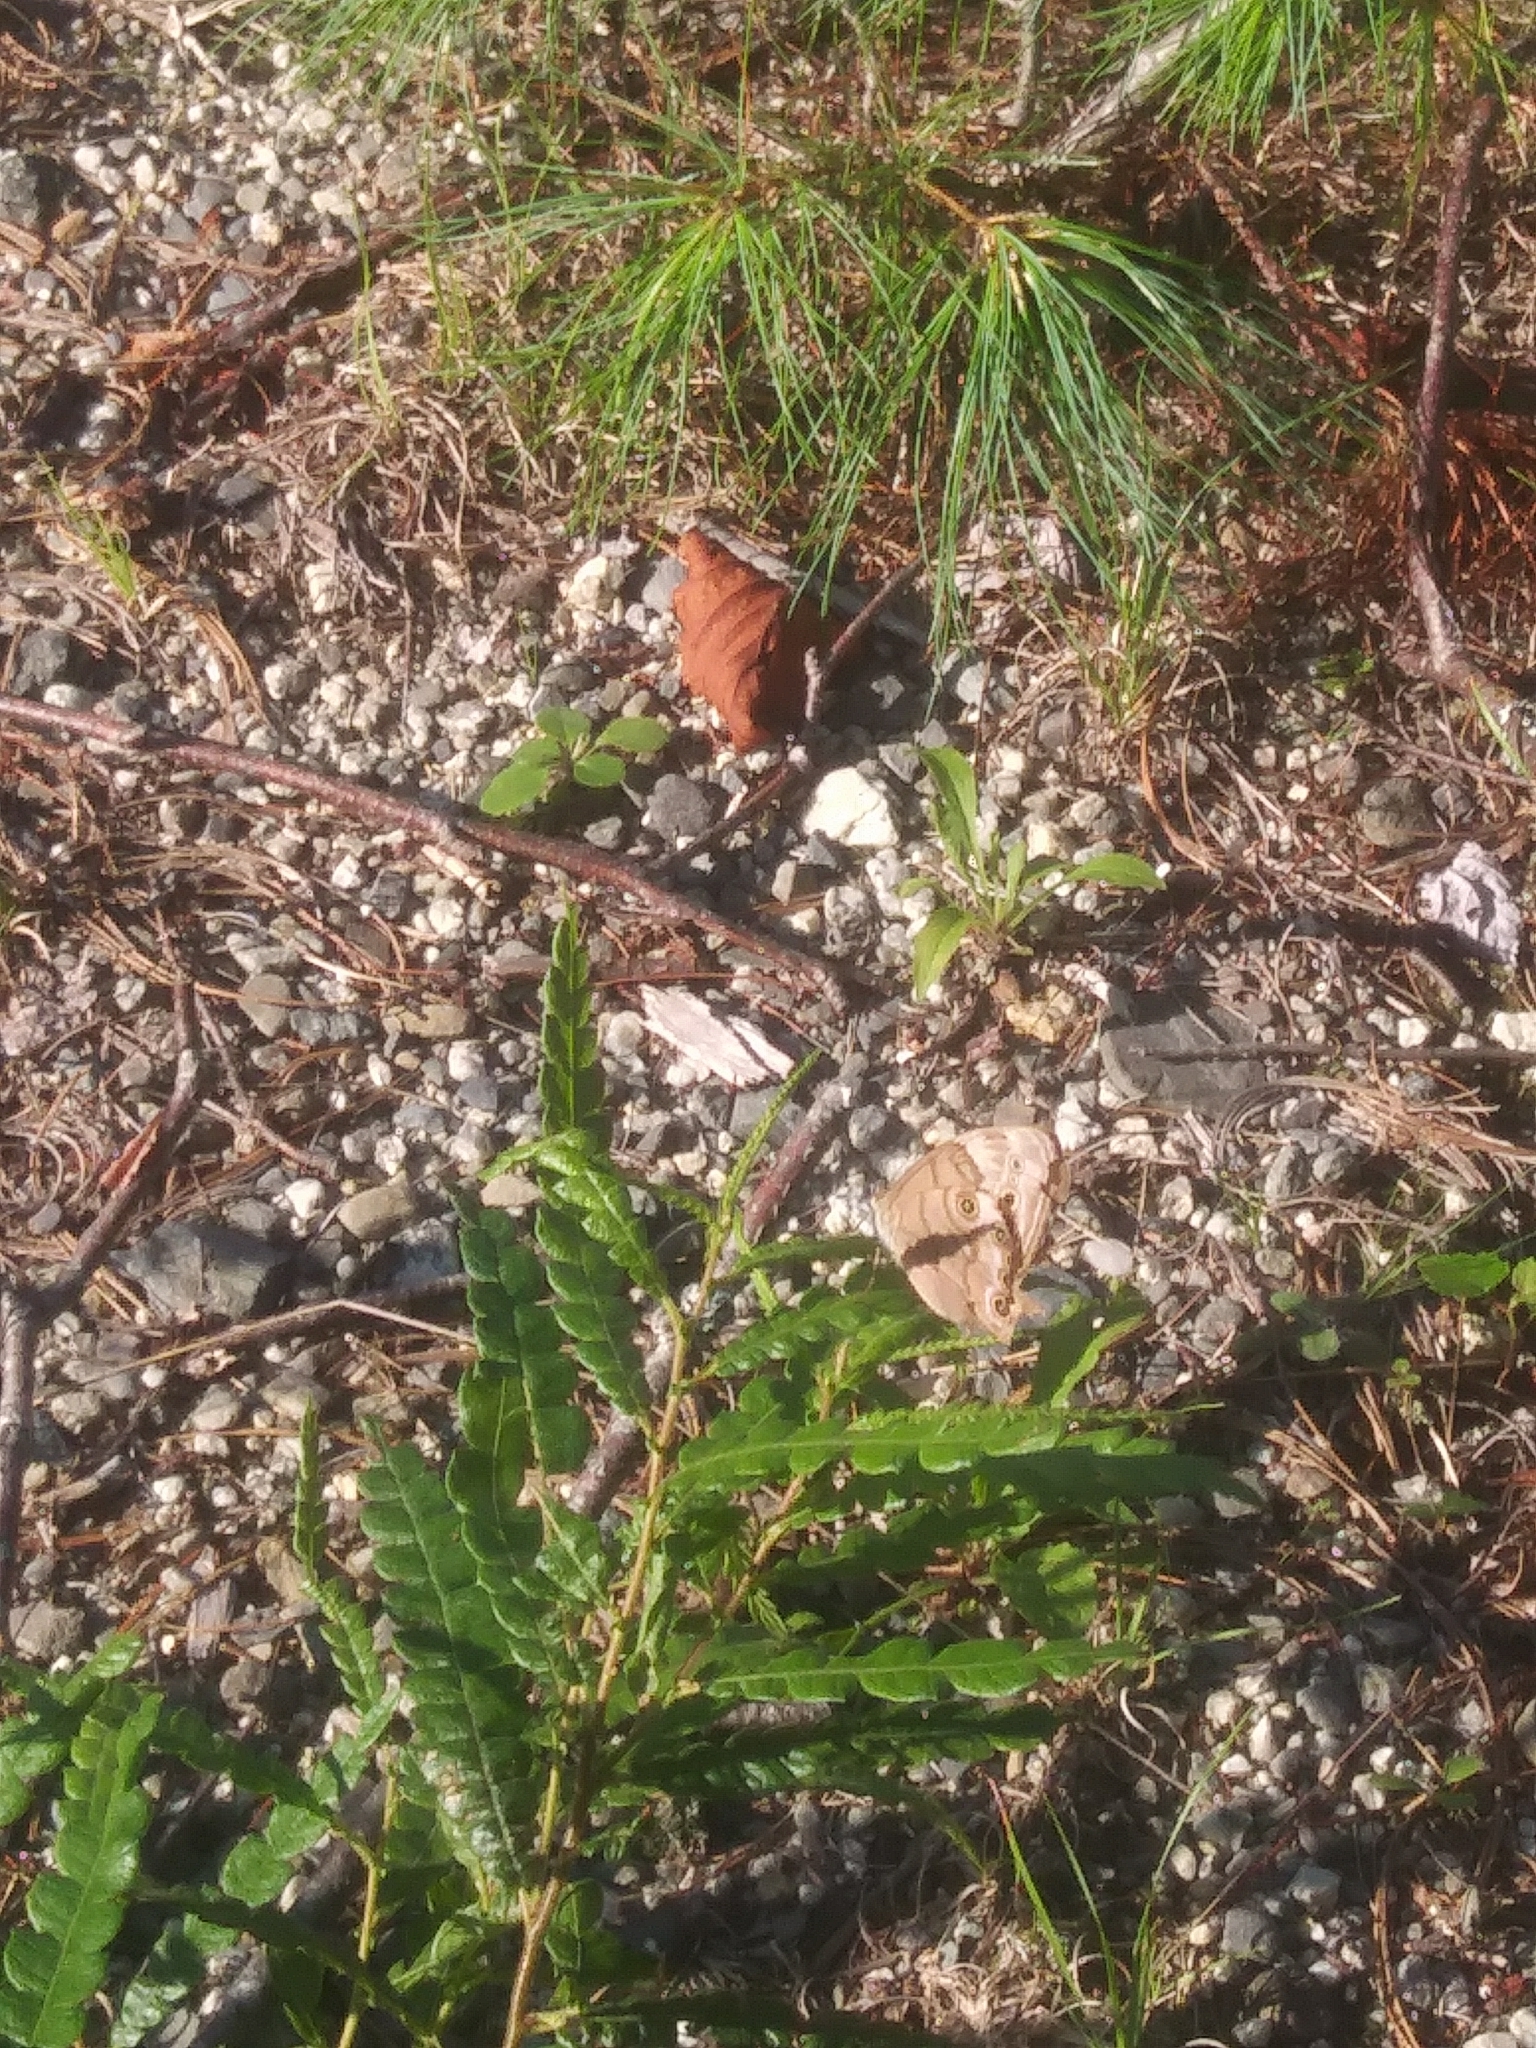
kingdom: Animalia
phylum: Arthropoda
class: Insecta
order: Lepidoptera
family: Nymphalidae
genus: Lethe
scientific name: Lethe anthedon
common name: Northern pearly-eye
